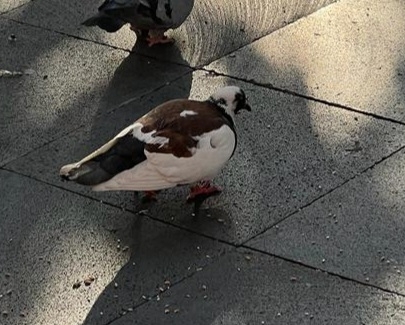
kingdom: Animalia
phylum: Chordata
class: Aves
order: Columbiformes
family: Columbidae
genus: Columba
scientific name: Columba livia
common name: Rock pigeon
